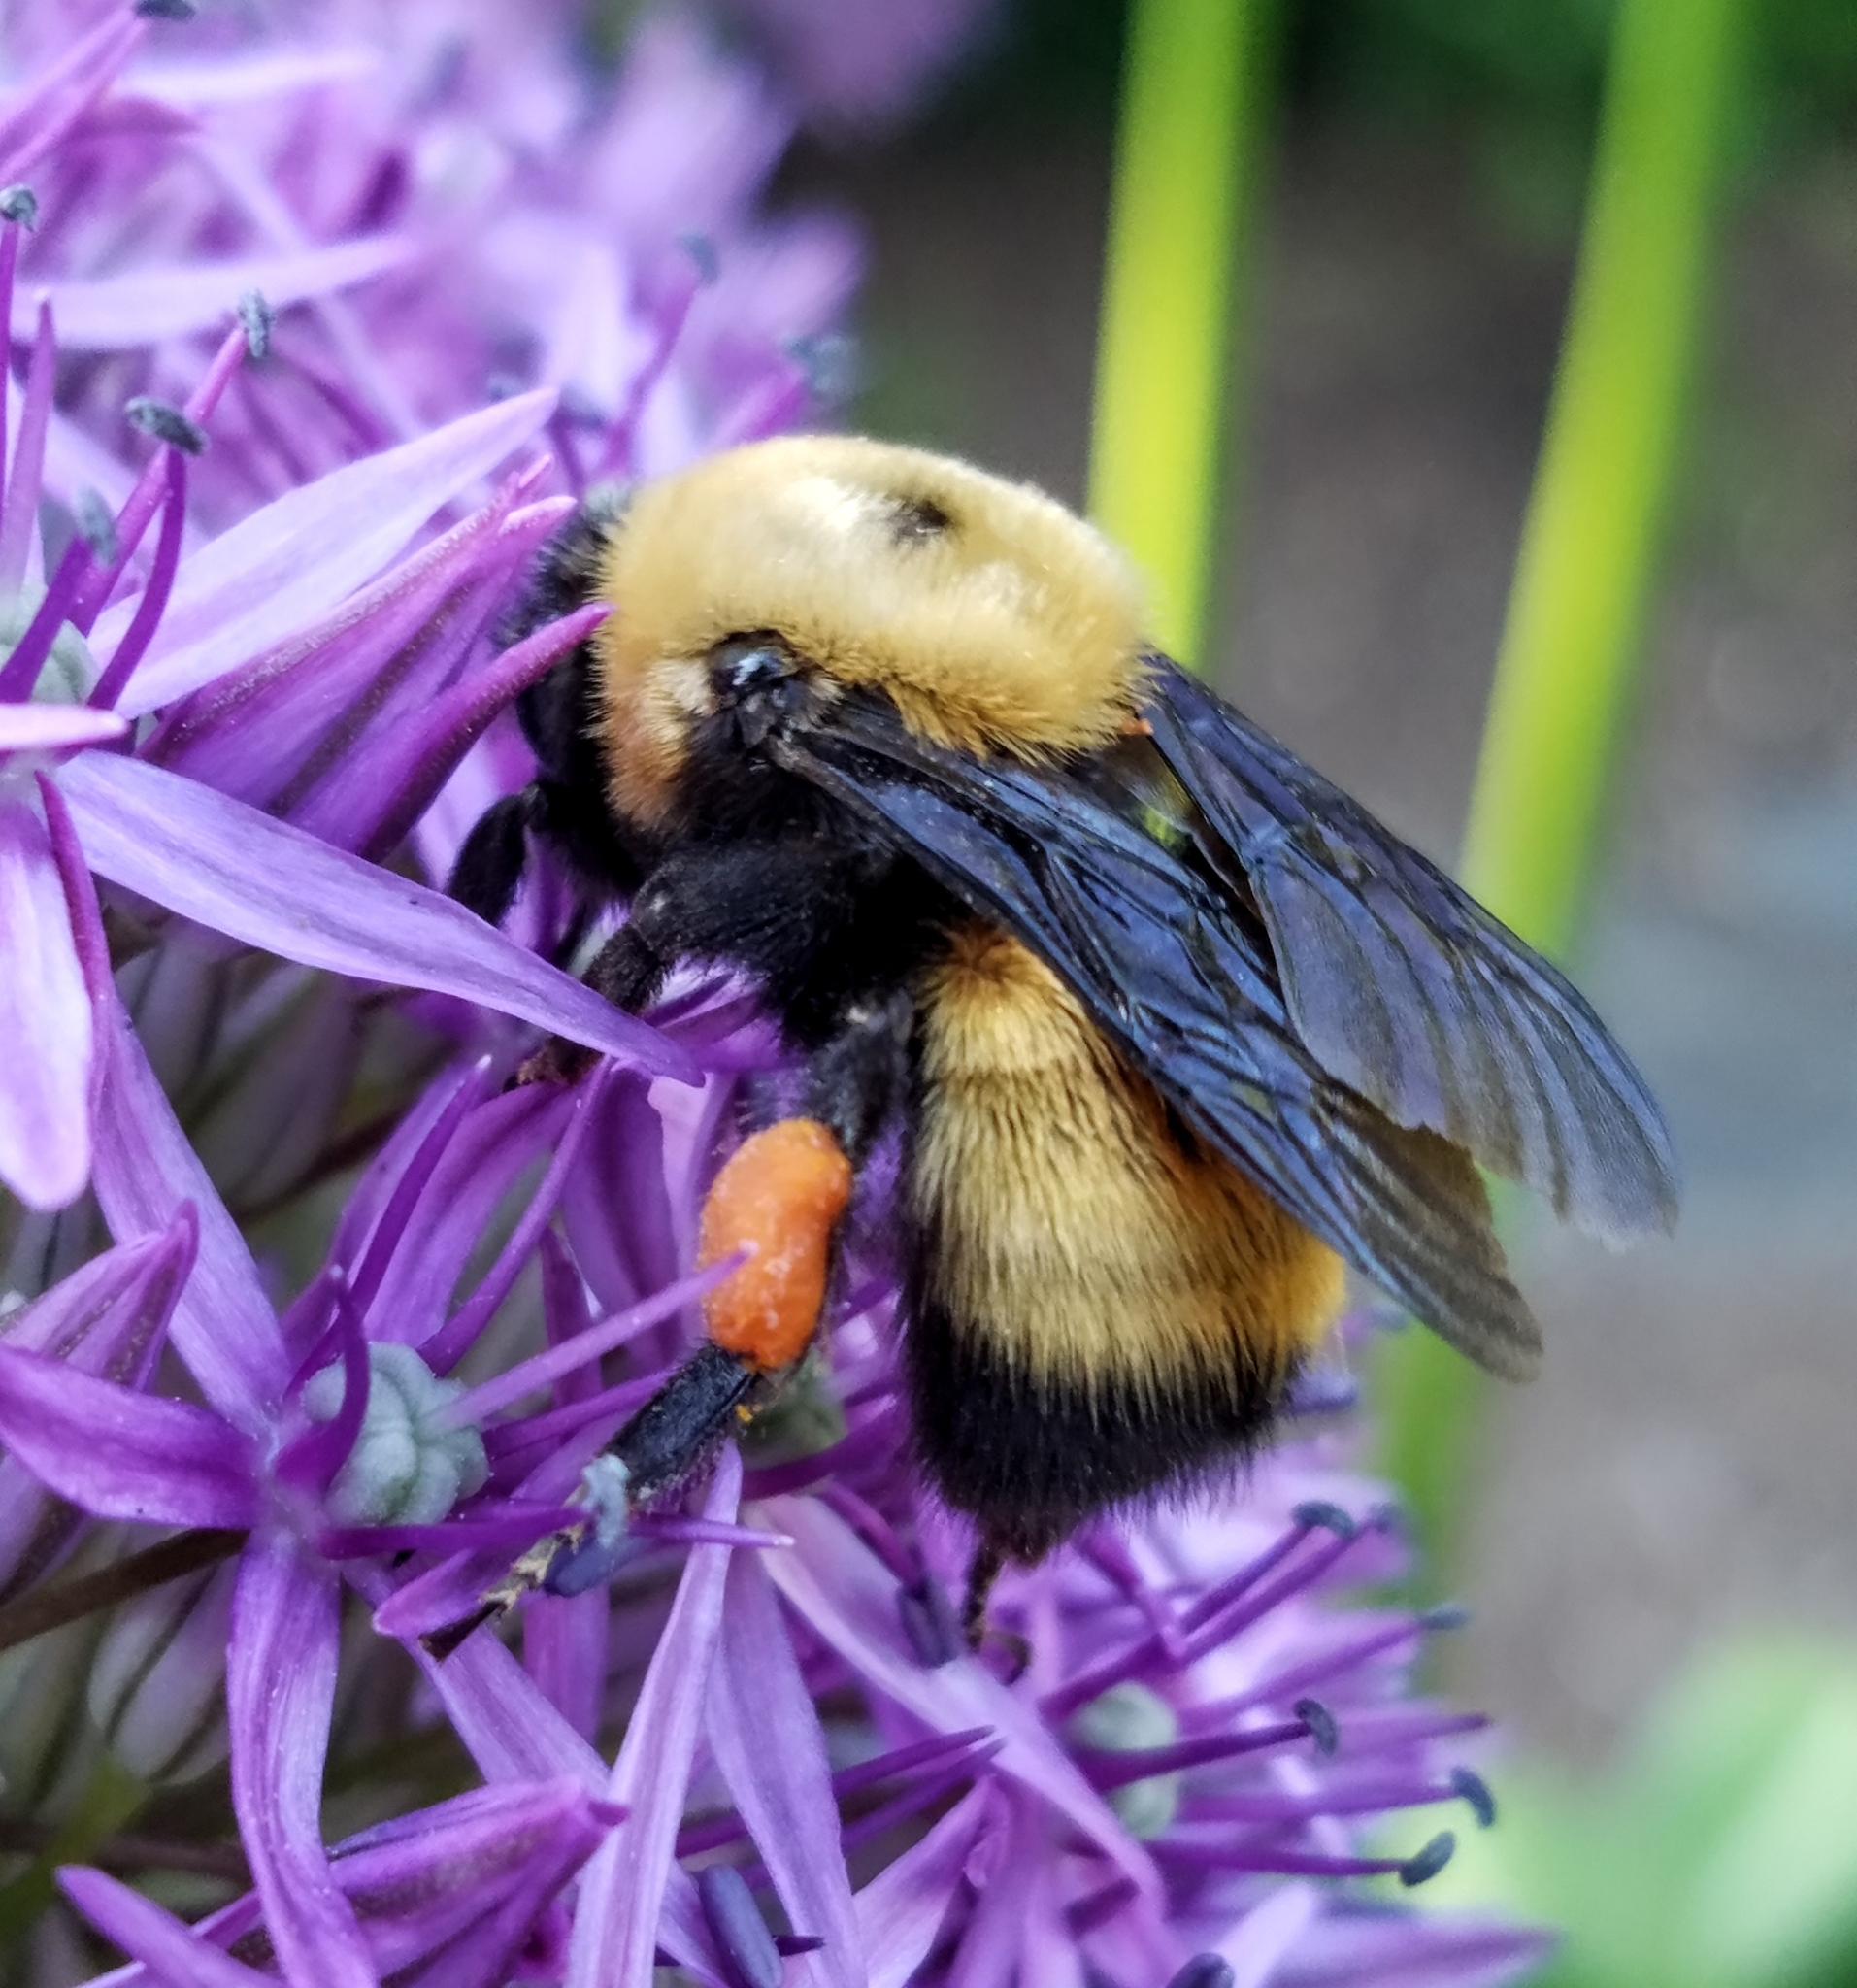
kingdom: Animalia
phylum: Arthropoda
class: Insecta
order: Hymenoptera
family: Apidae
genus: Bombus
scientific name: Bombus nevadensis
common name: Nevada bumble bee
